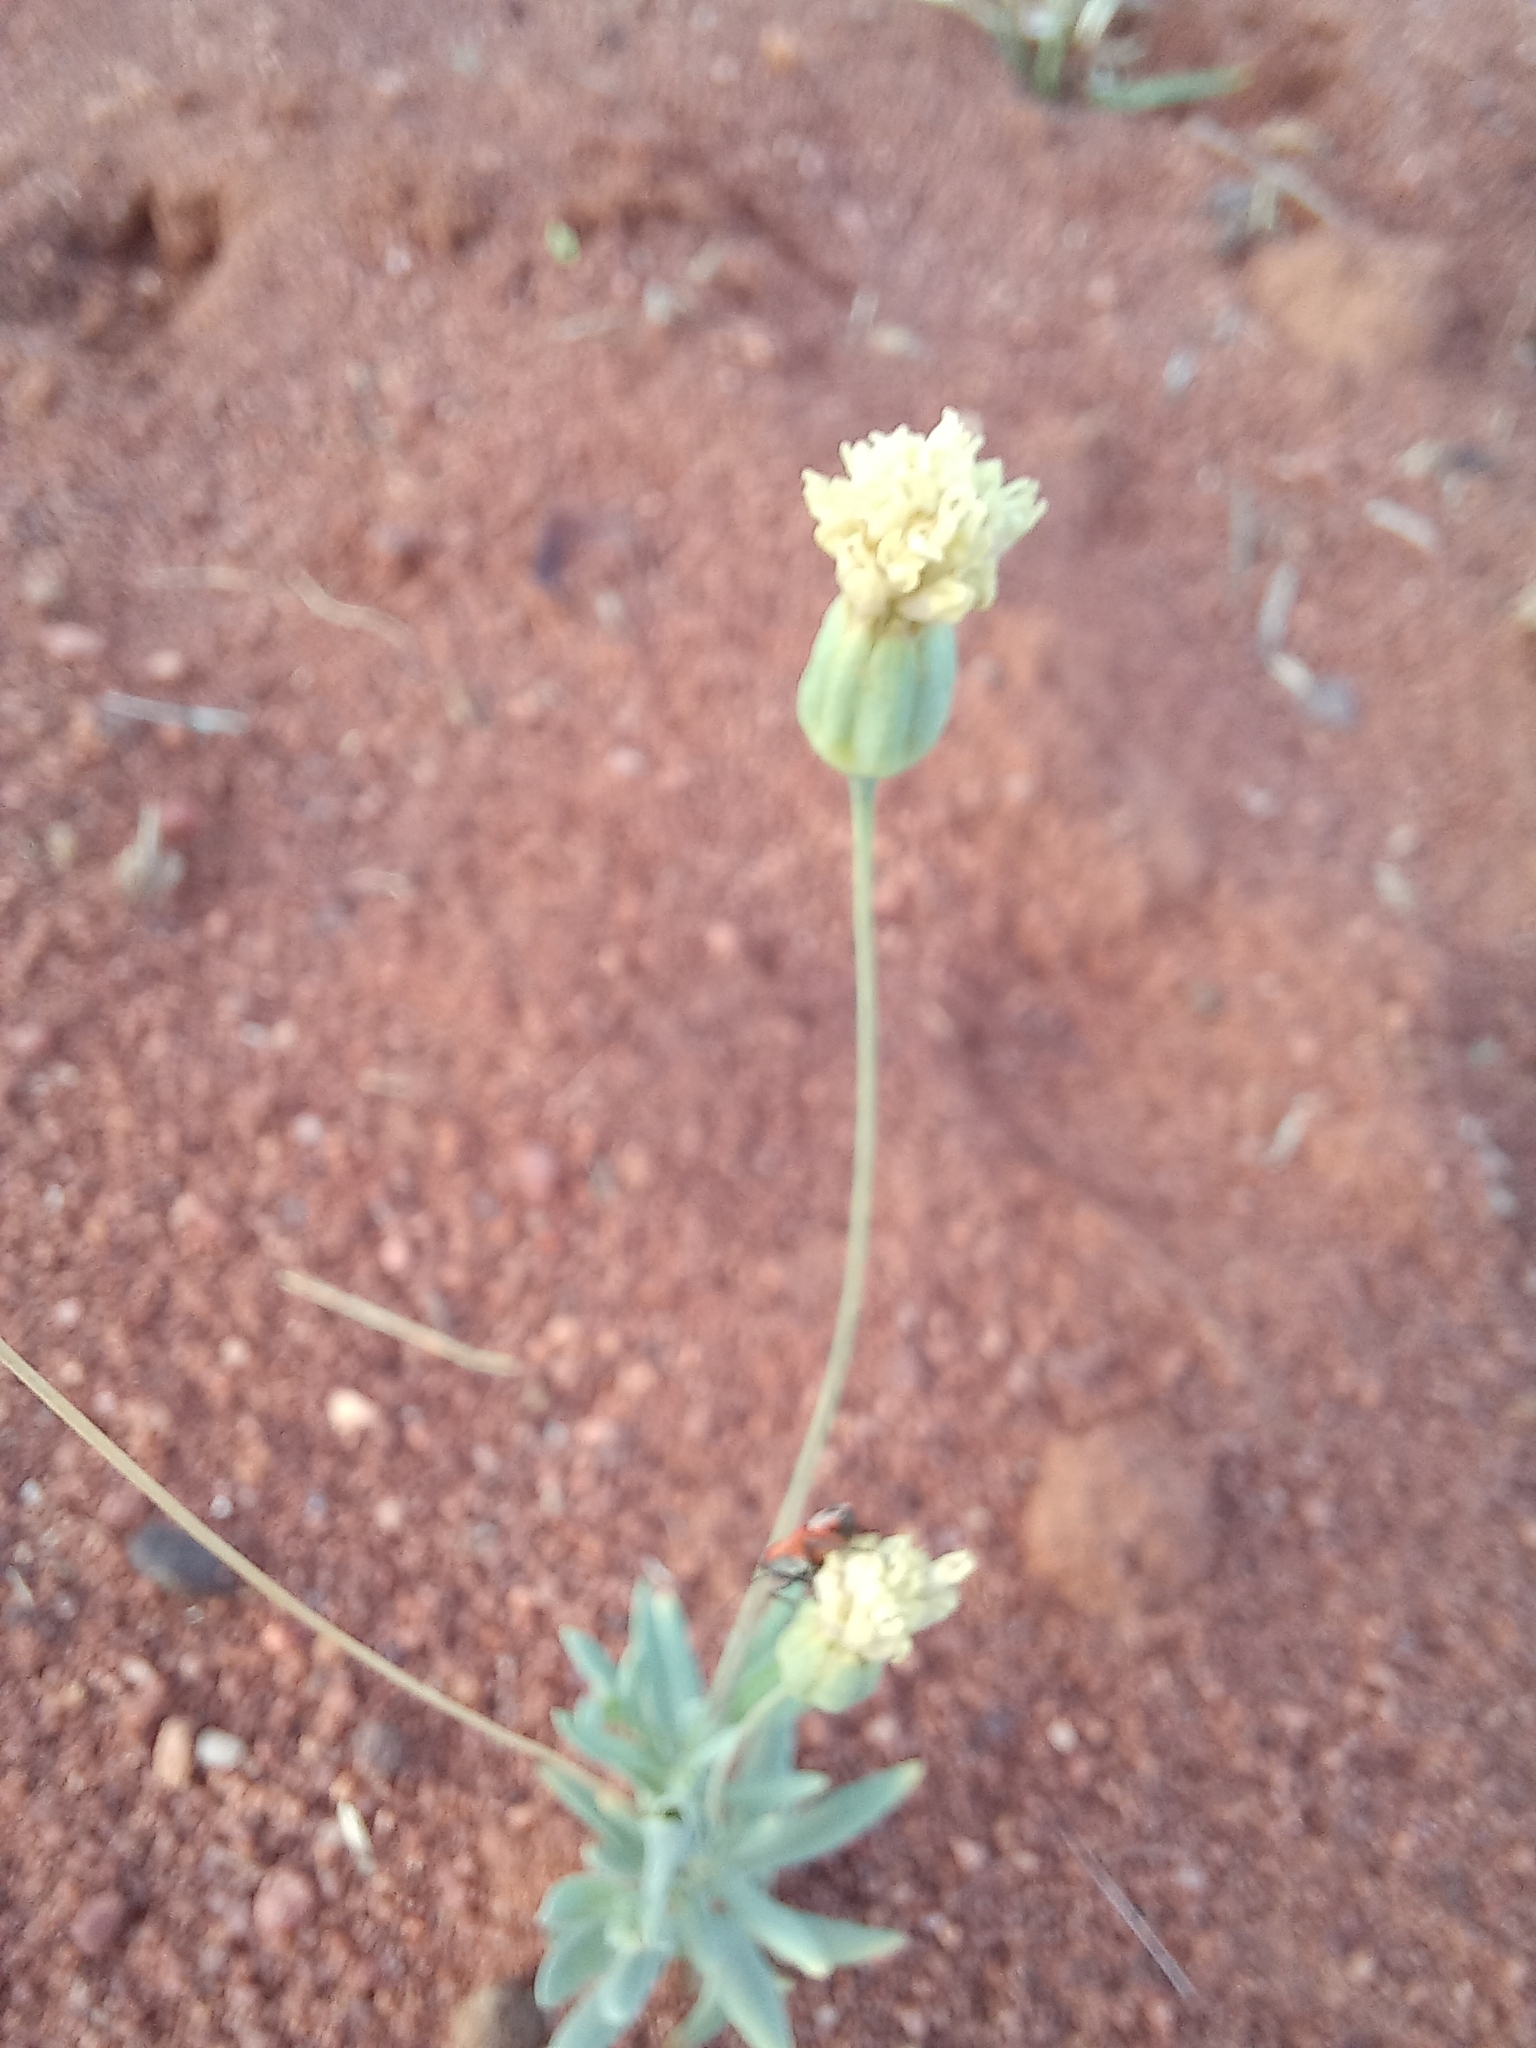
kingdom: Plantae
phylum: Tracheophyta
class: Magnoliopsida
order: Asterales
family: Asteraceae
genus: Emilia
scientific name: Emilia transvaalensis
